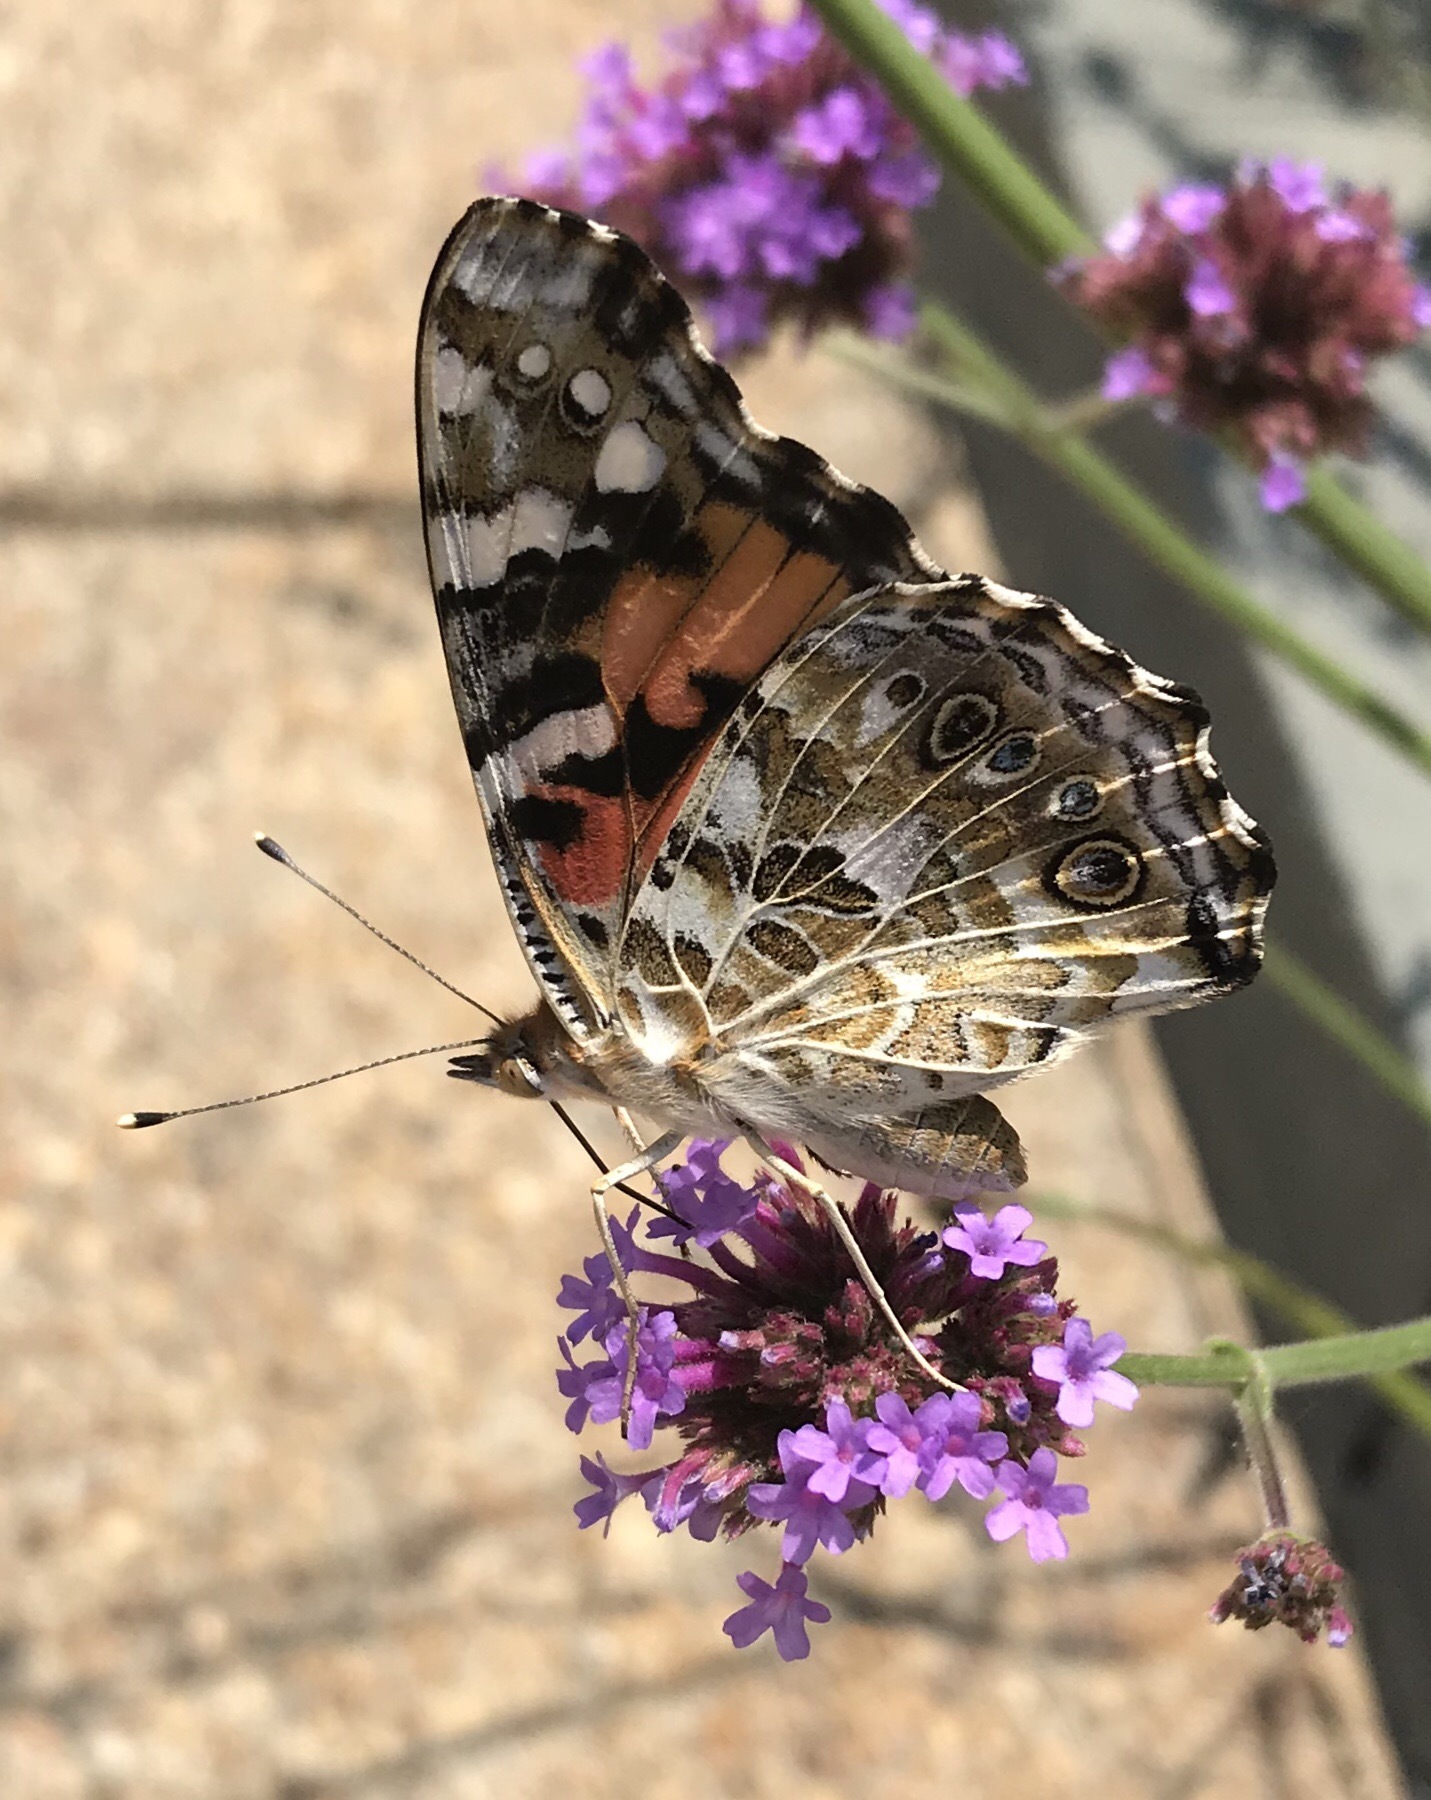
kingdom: Animalia
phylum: Arthropoda
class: Insecta
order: Lepidoptera
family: Nymphalidae
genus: Vanessa
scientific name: Vanessa cardui
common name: Painted lady
